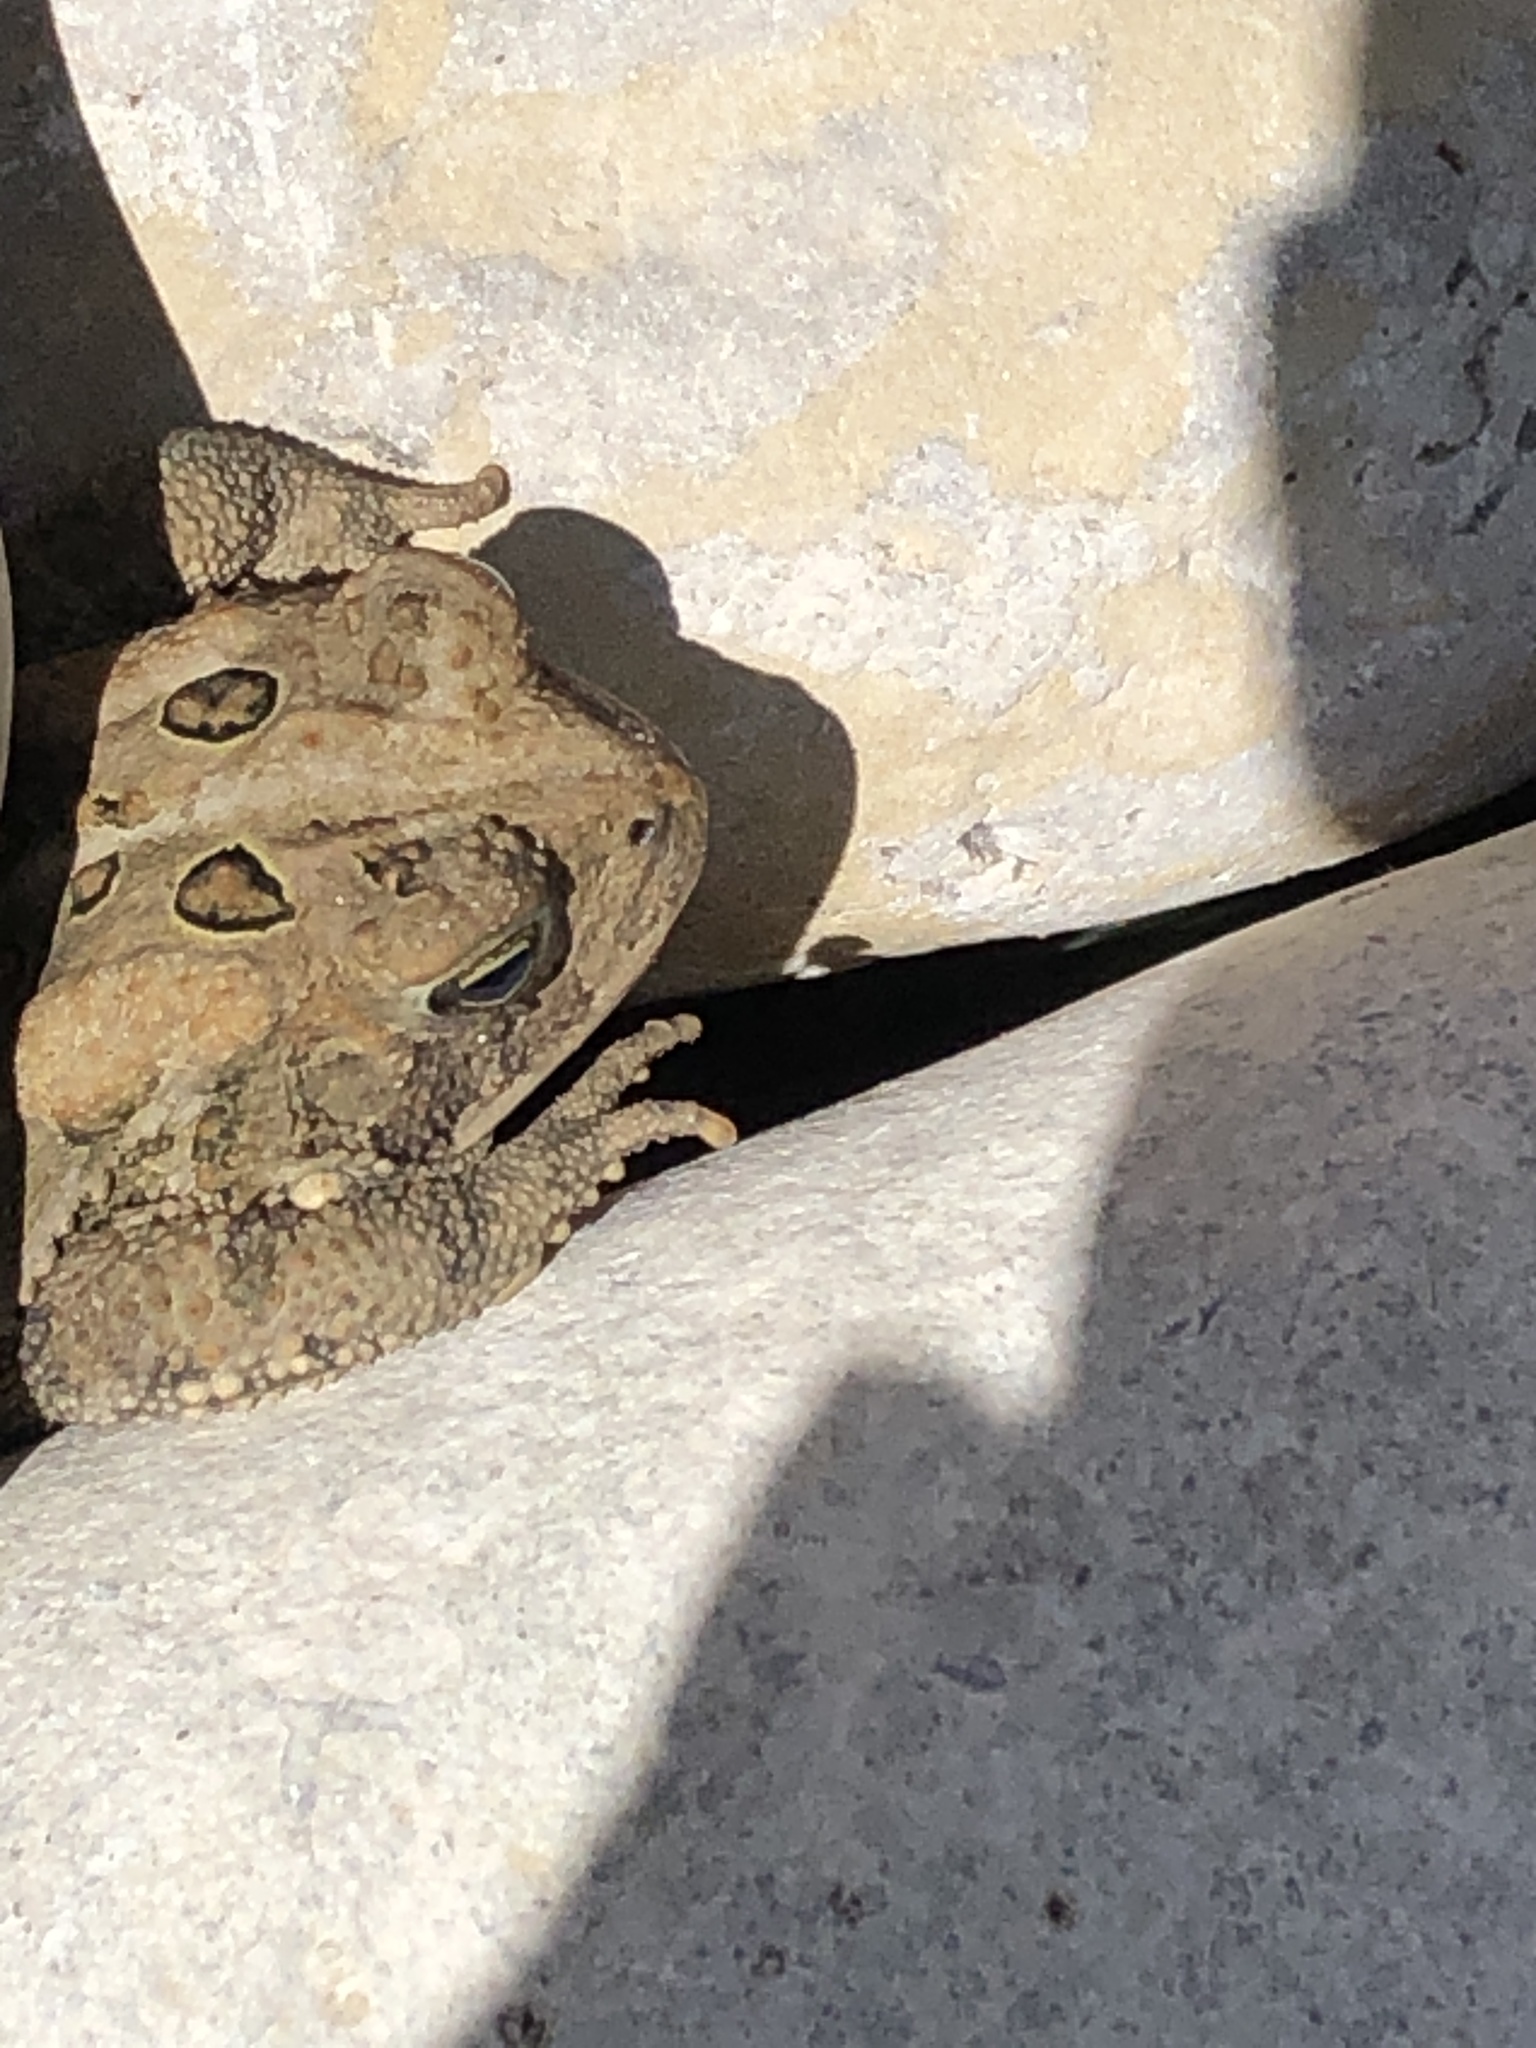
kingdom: Animalia
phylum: Chordata
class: Amphibia
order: Anura
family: Bufonidae
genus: Anaxyrus
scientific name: Anaxyrus americanus
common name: American toad
